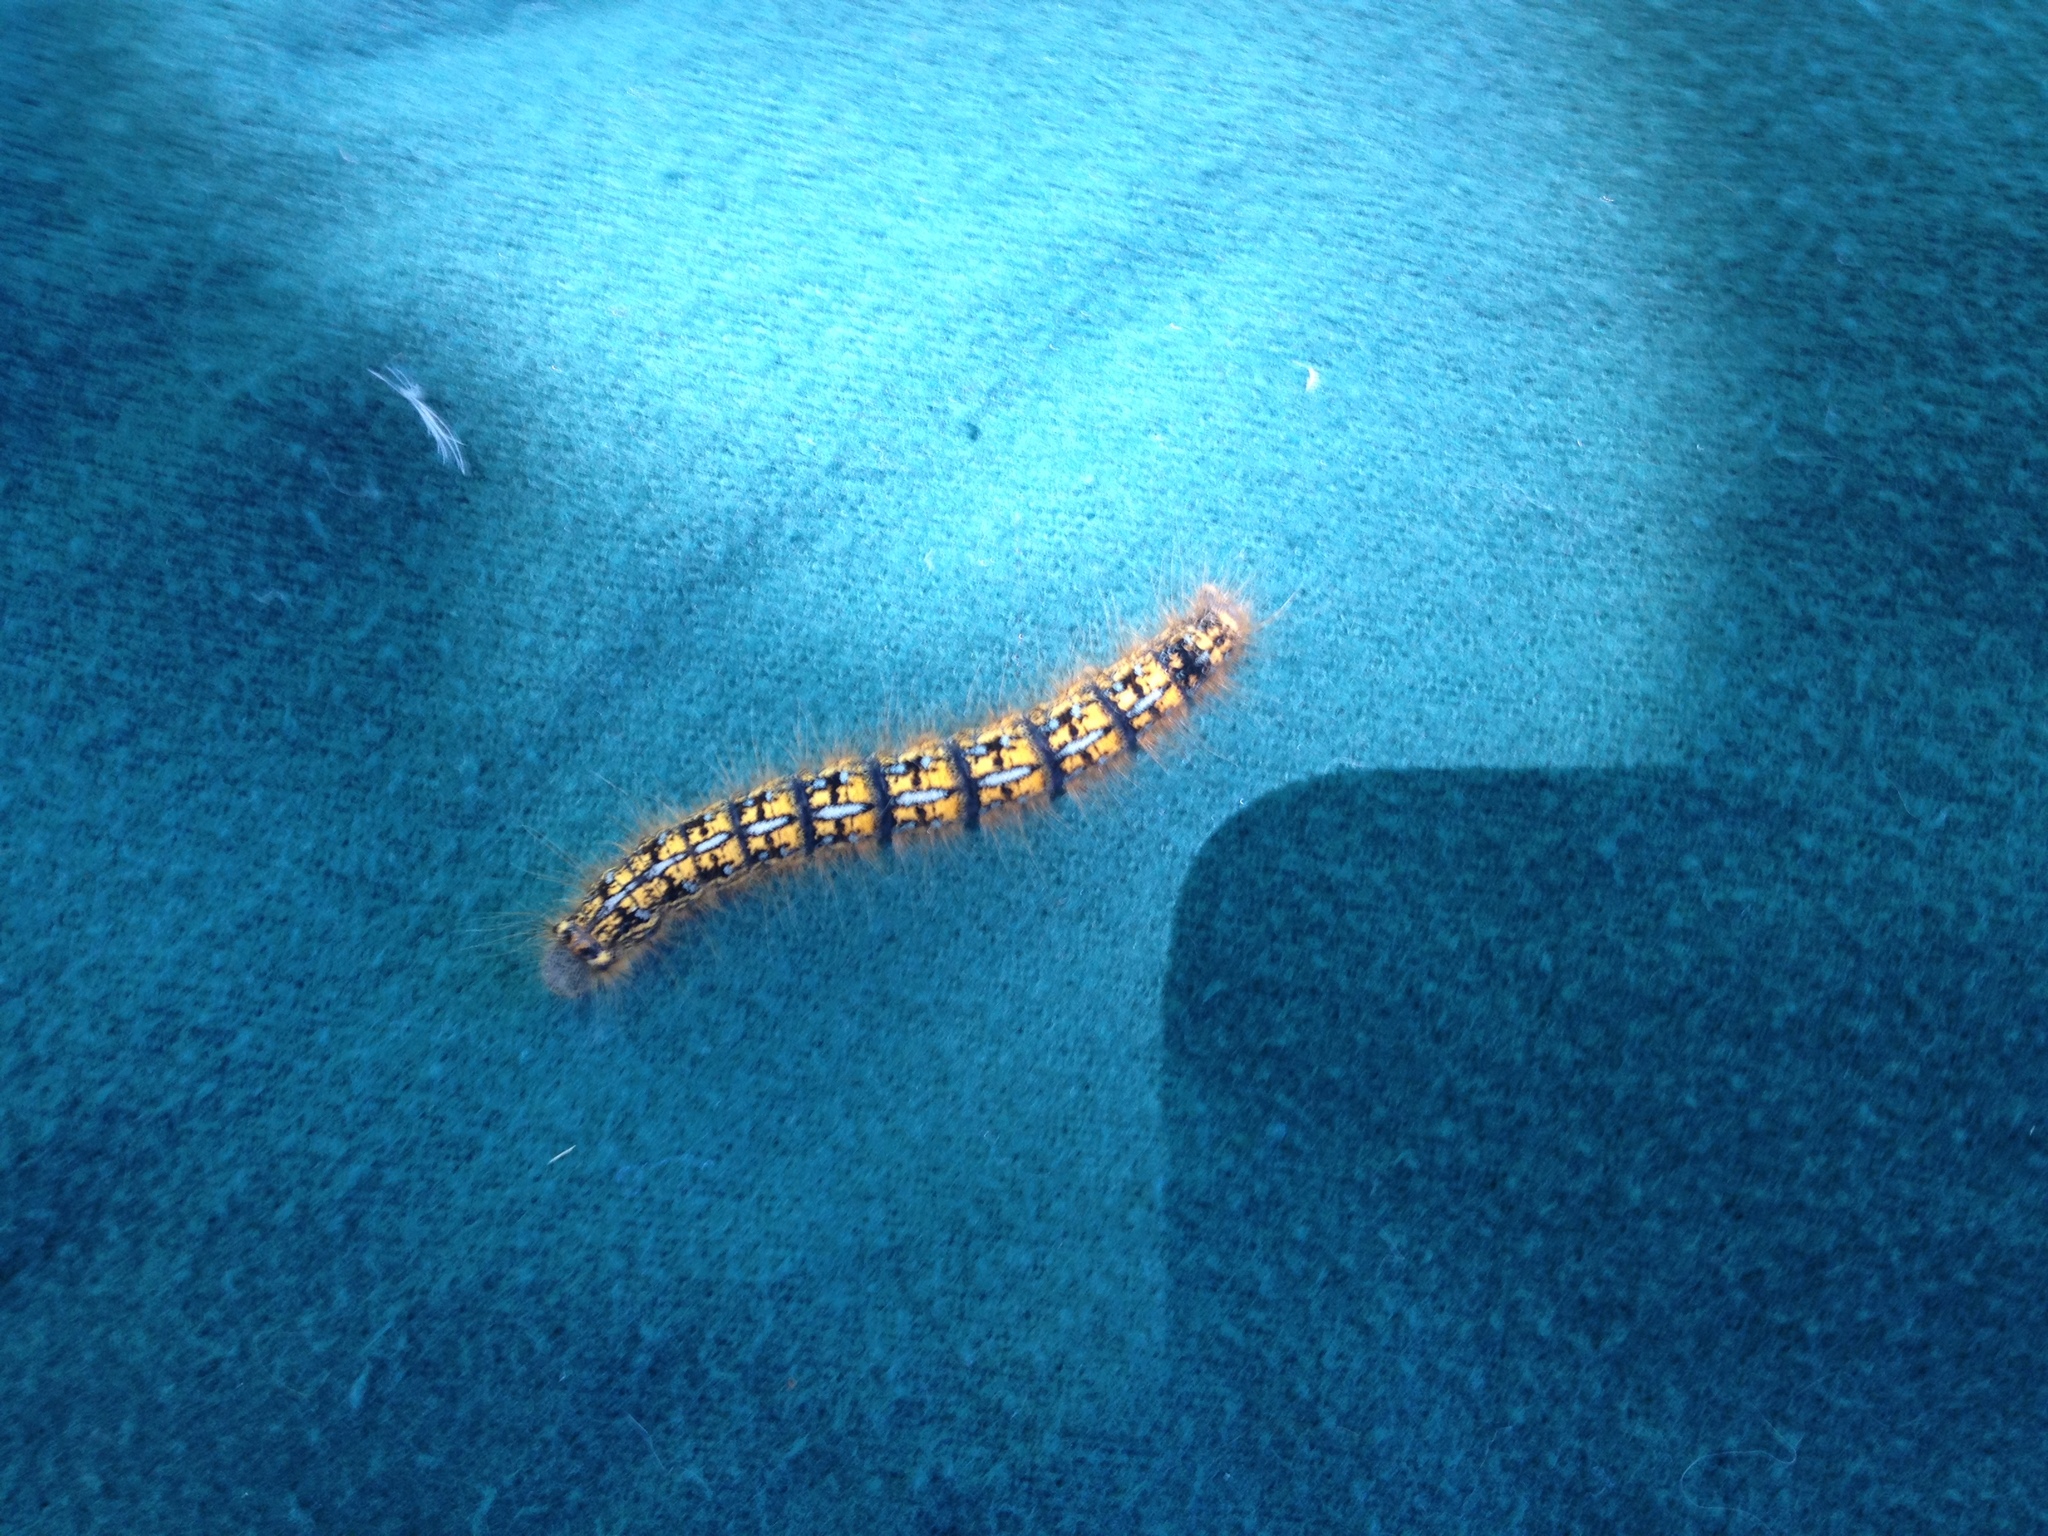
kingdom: Animalia
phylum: Arthropoda
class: Insecta
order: Lepidoptera
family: Lasiocampidae
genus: Malacosoma
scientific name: Malacosoma californica
